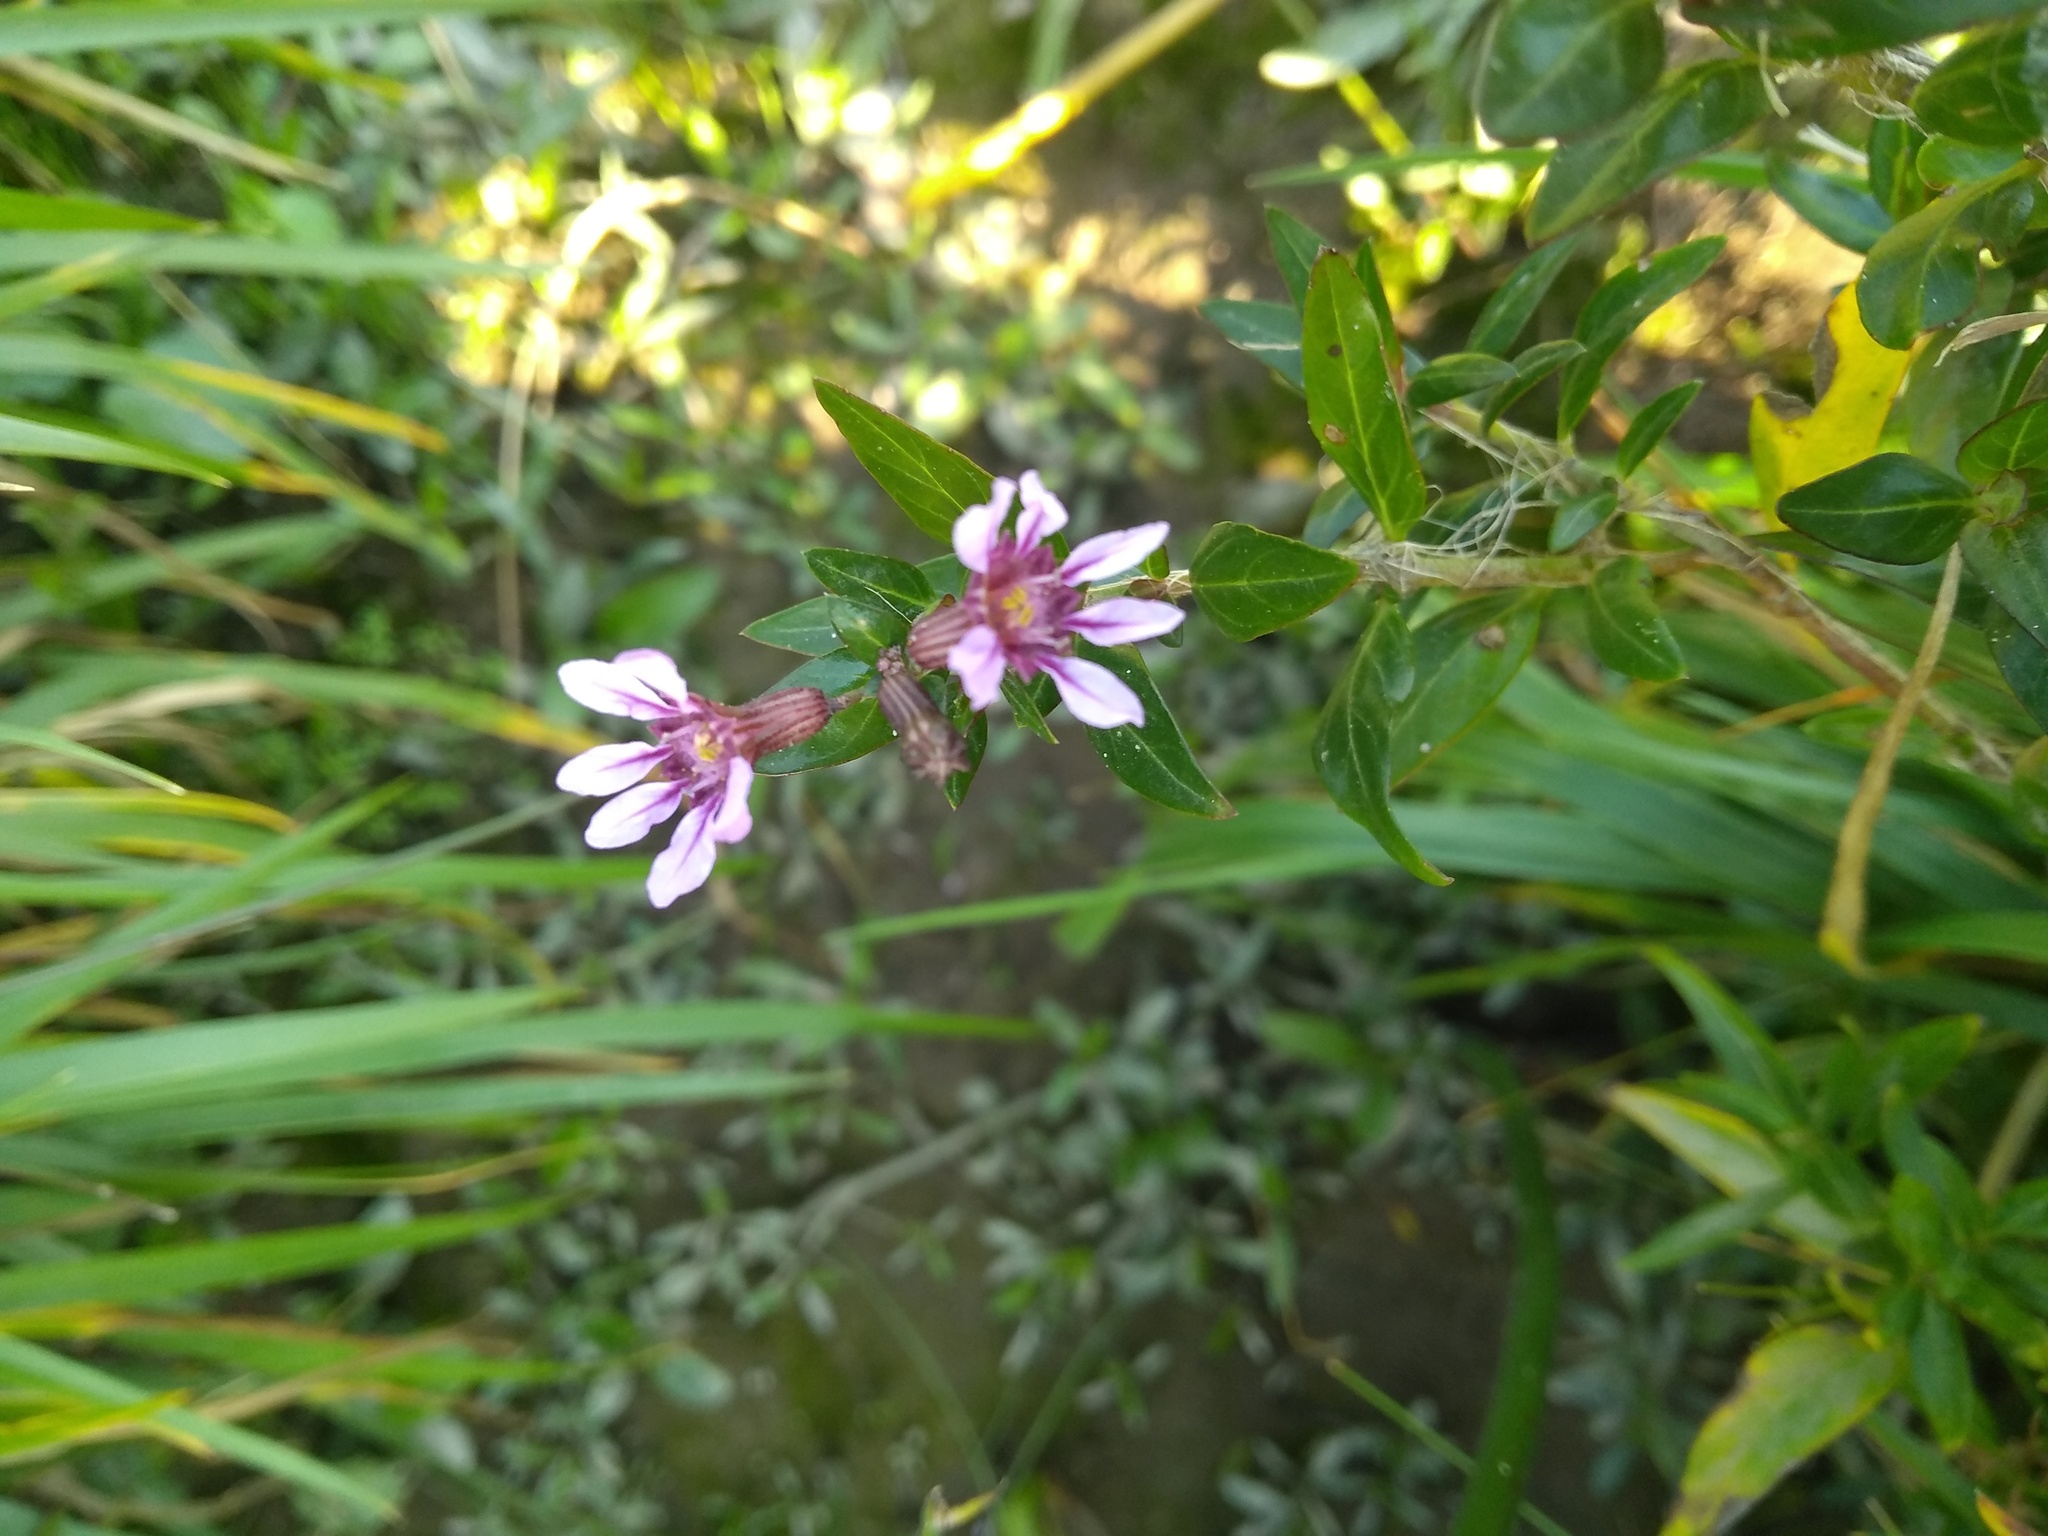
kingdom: Plantae
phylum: Tracheophyta
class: Magnoliopsida
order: Myrtales
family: Lythraceae
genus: Cuphea
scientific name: Cuphea fruticosa
